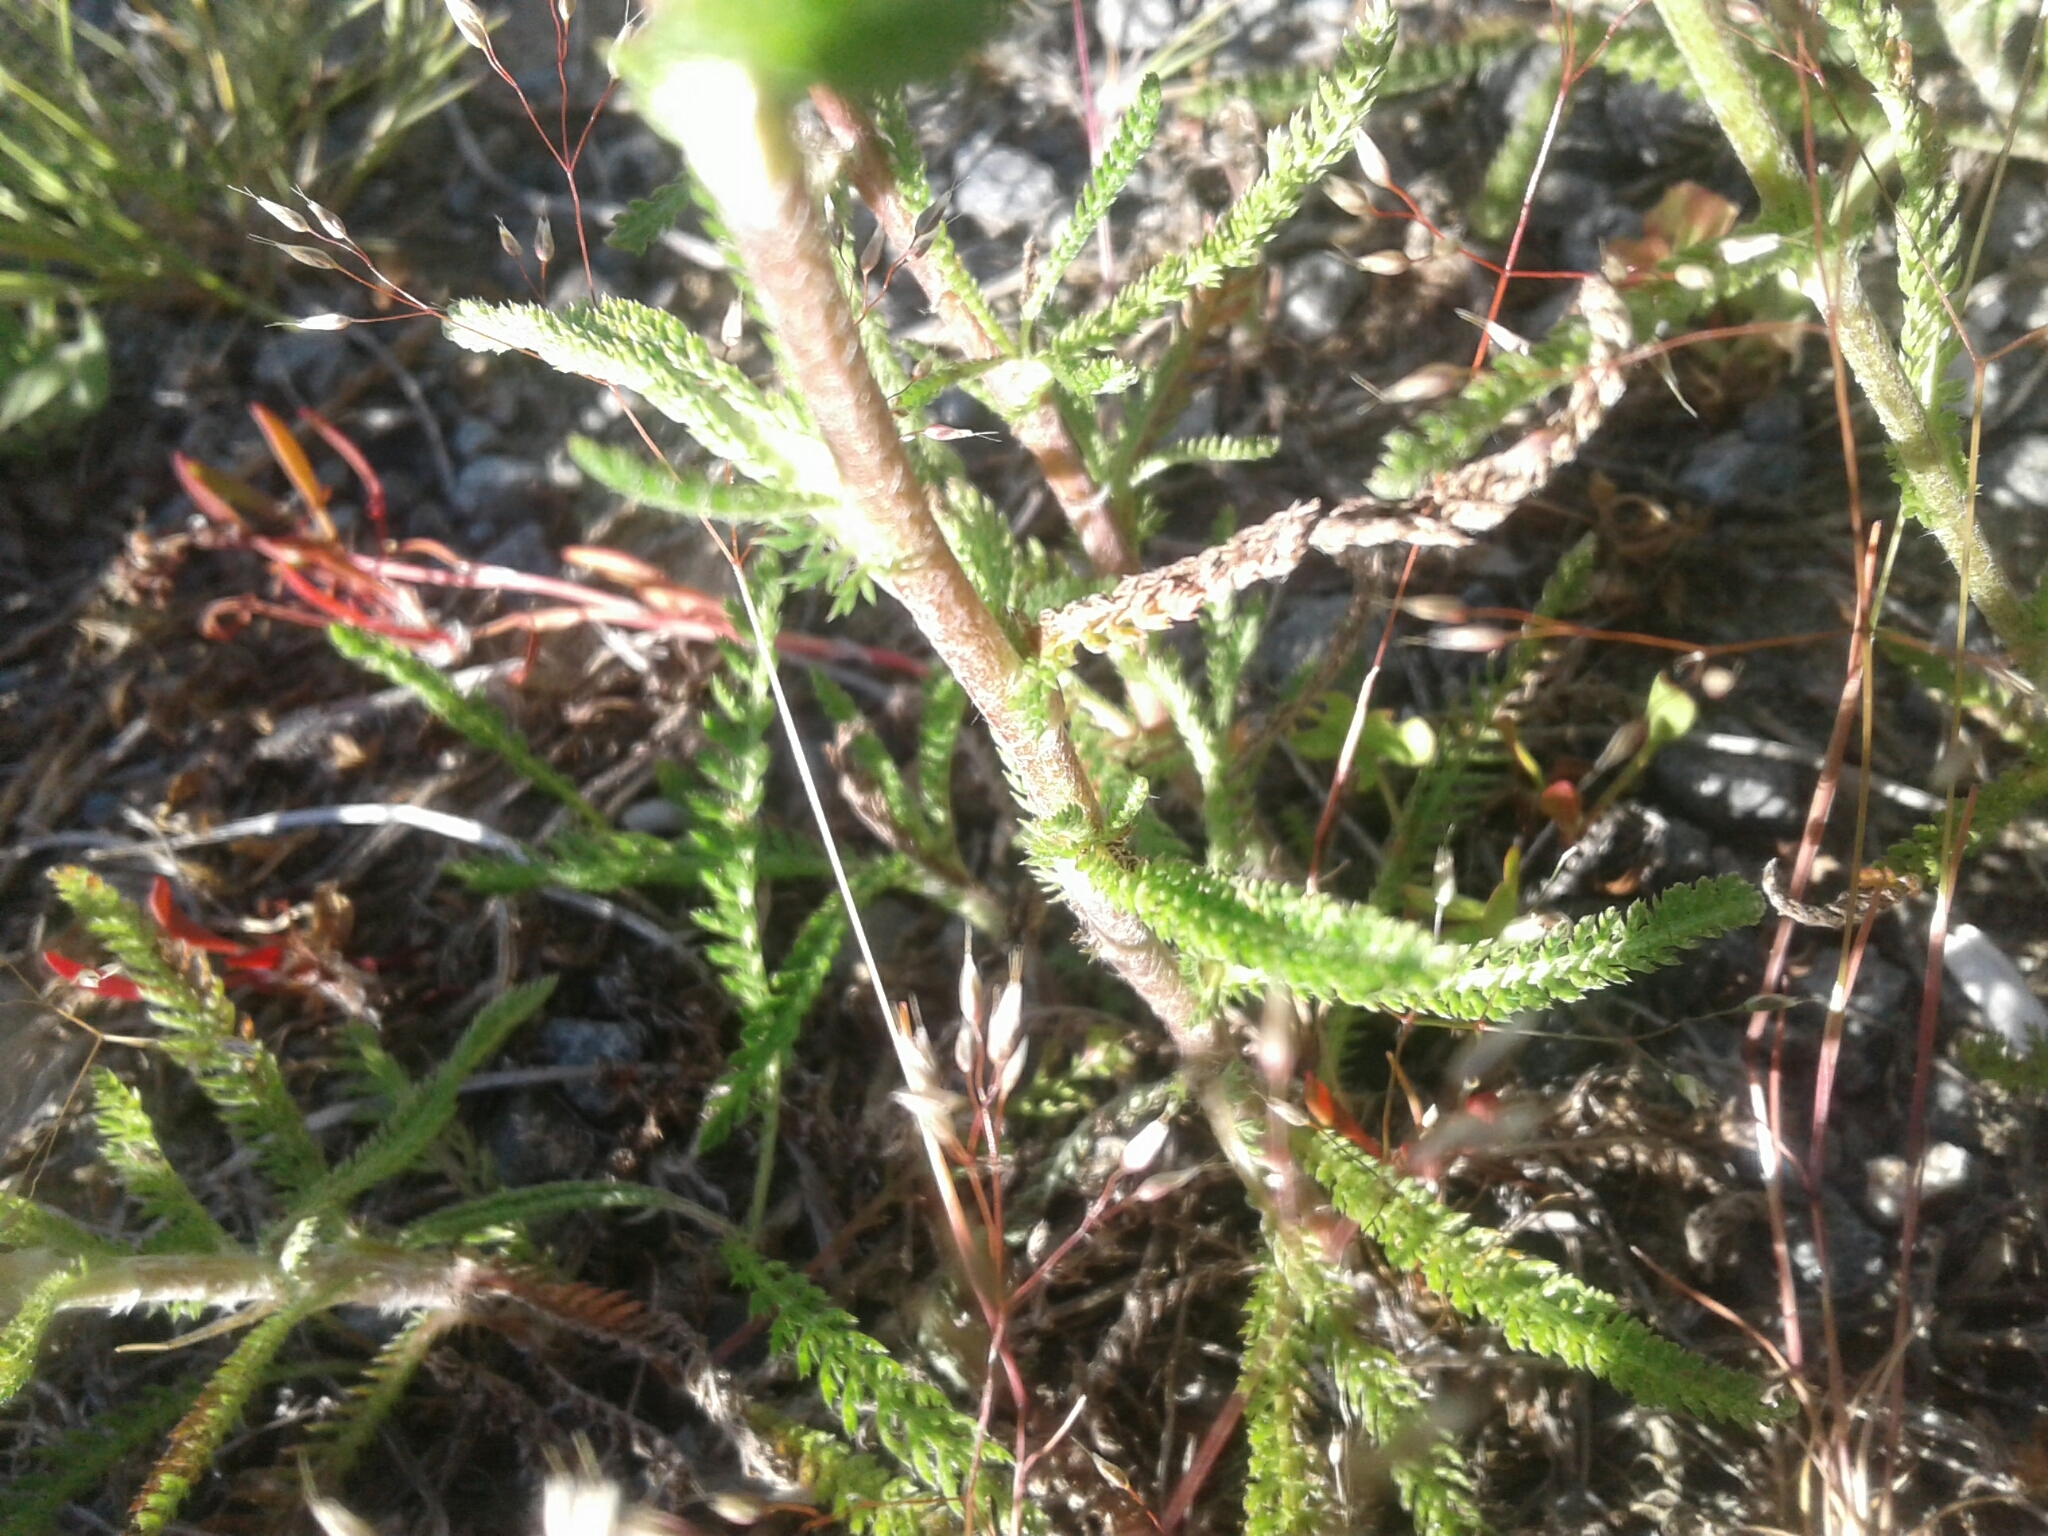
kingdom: Plantae
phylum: Tracheophyta
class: Magnoliopsida
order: Asterales
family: Asteraceae
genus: Achillea
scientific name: Achillea millefolium
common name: Yarrow
